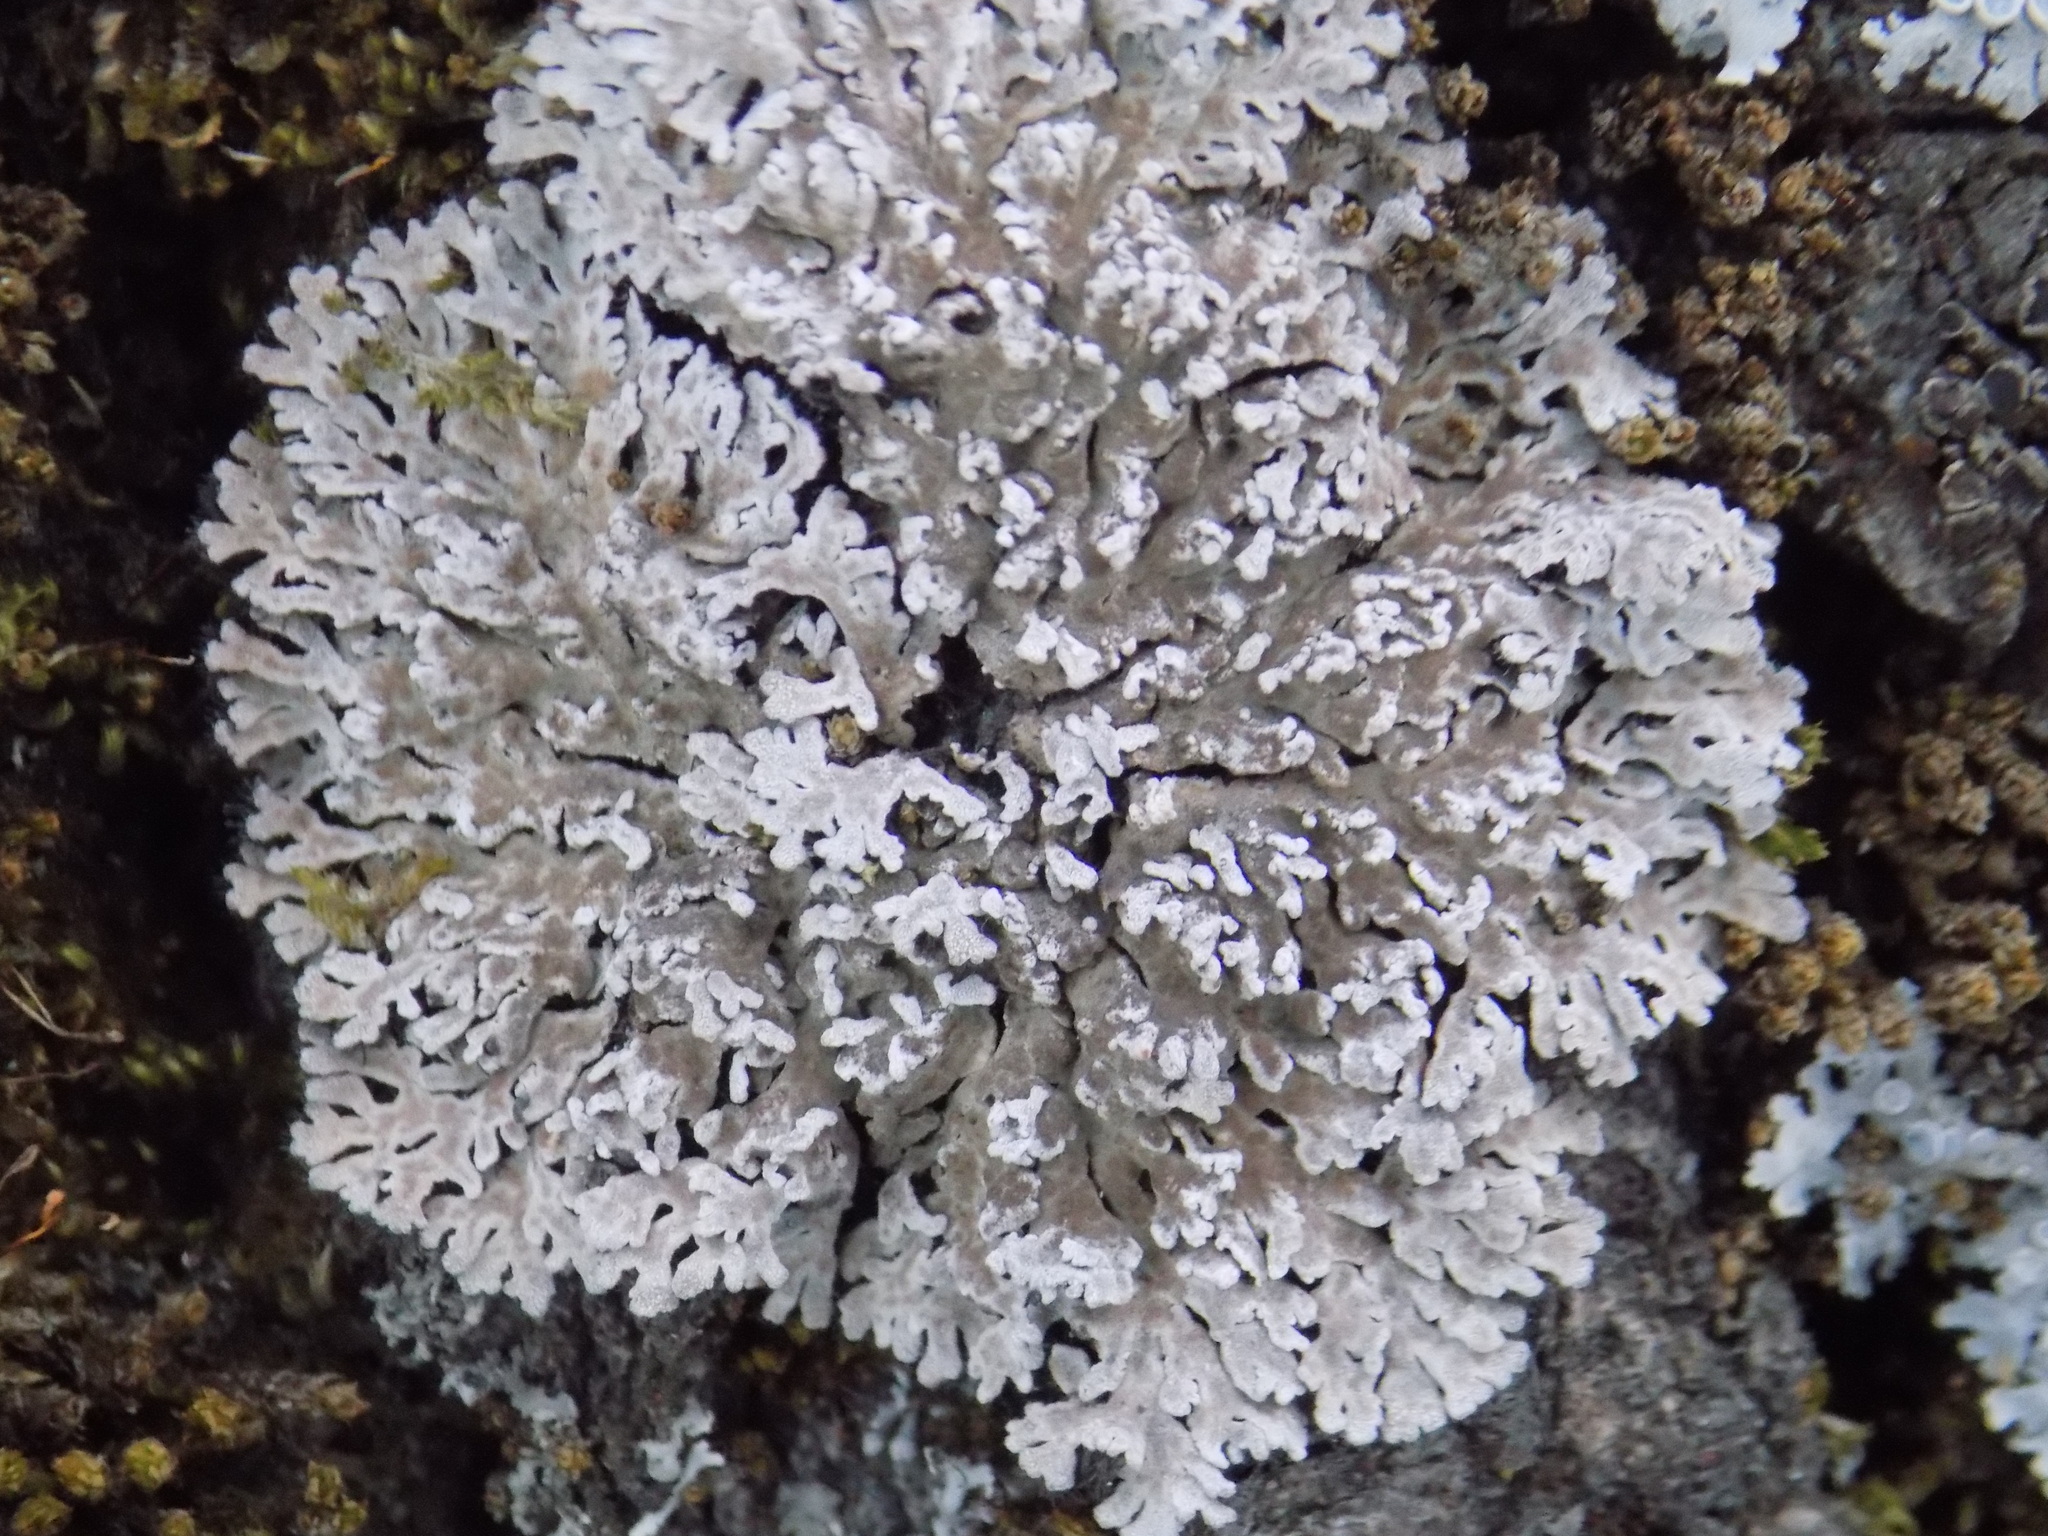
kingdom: Fungi
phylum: Ascomycota
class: Lecanoromycetes
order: Caliciales
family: Physciaceae
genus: Physconia
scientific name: Physconia distorta
